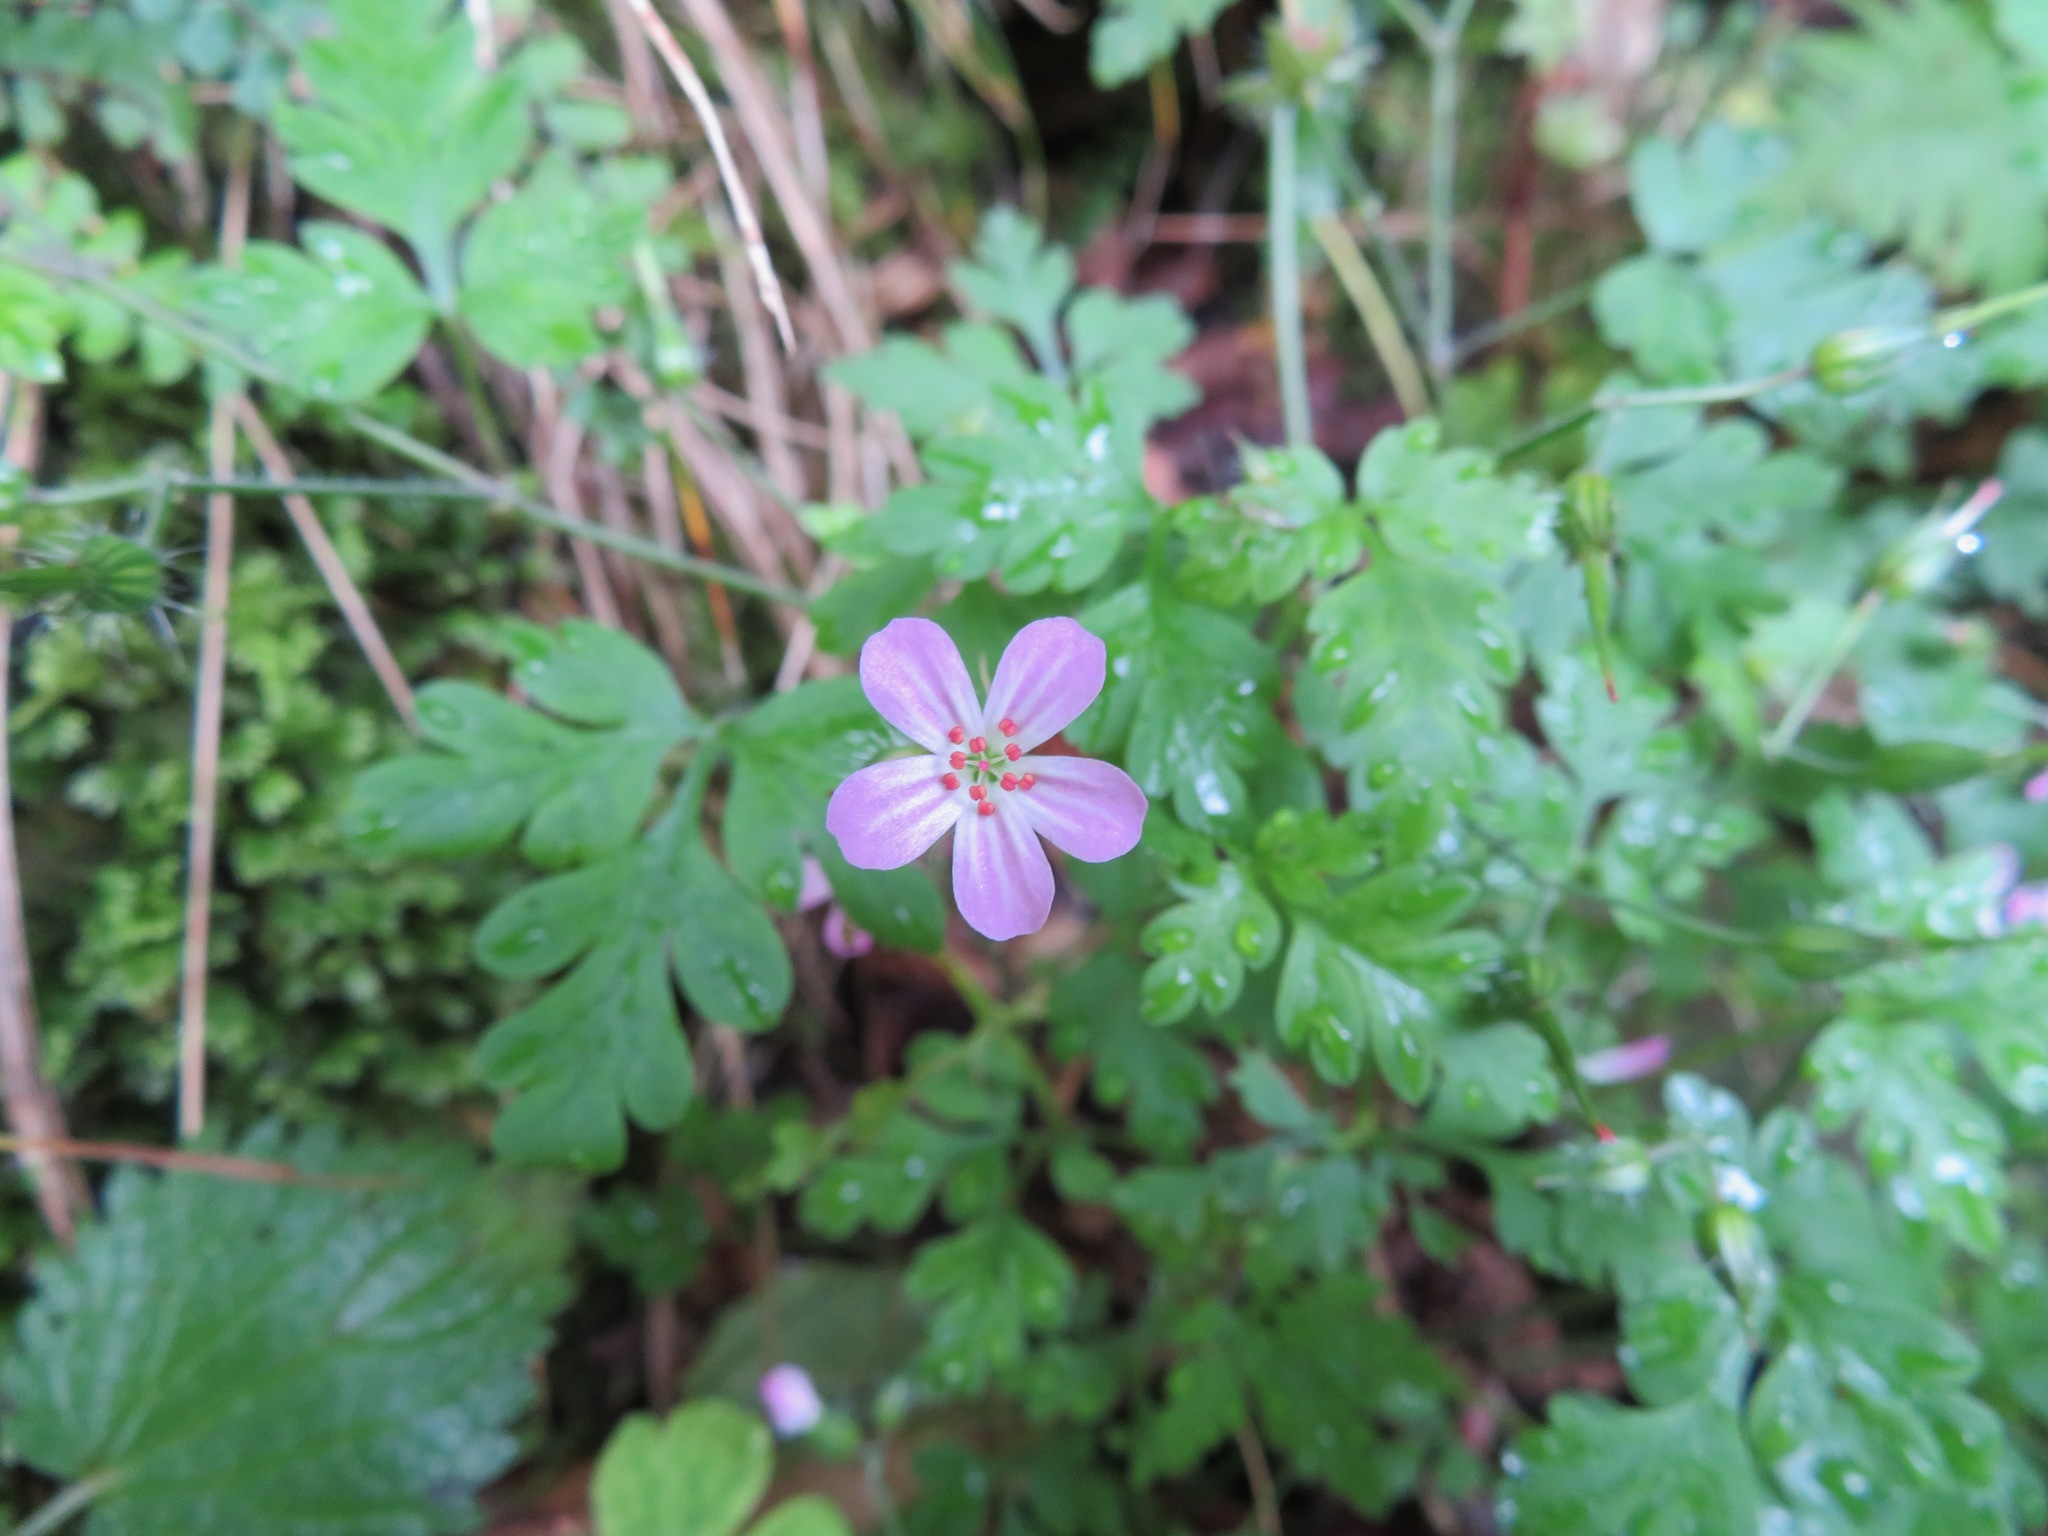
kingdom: Plantae
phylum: Tracheophyta
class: Magnoliopsida
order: Geraniales
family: Geraniaceae
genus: Geranium
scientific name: Geranium robertianum
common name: Herb-robert
